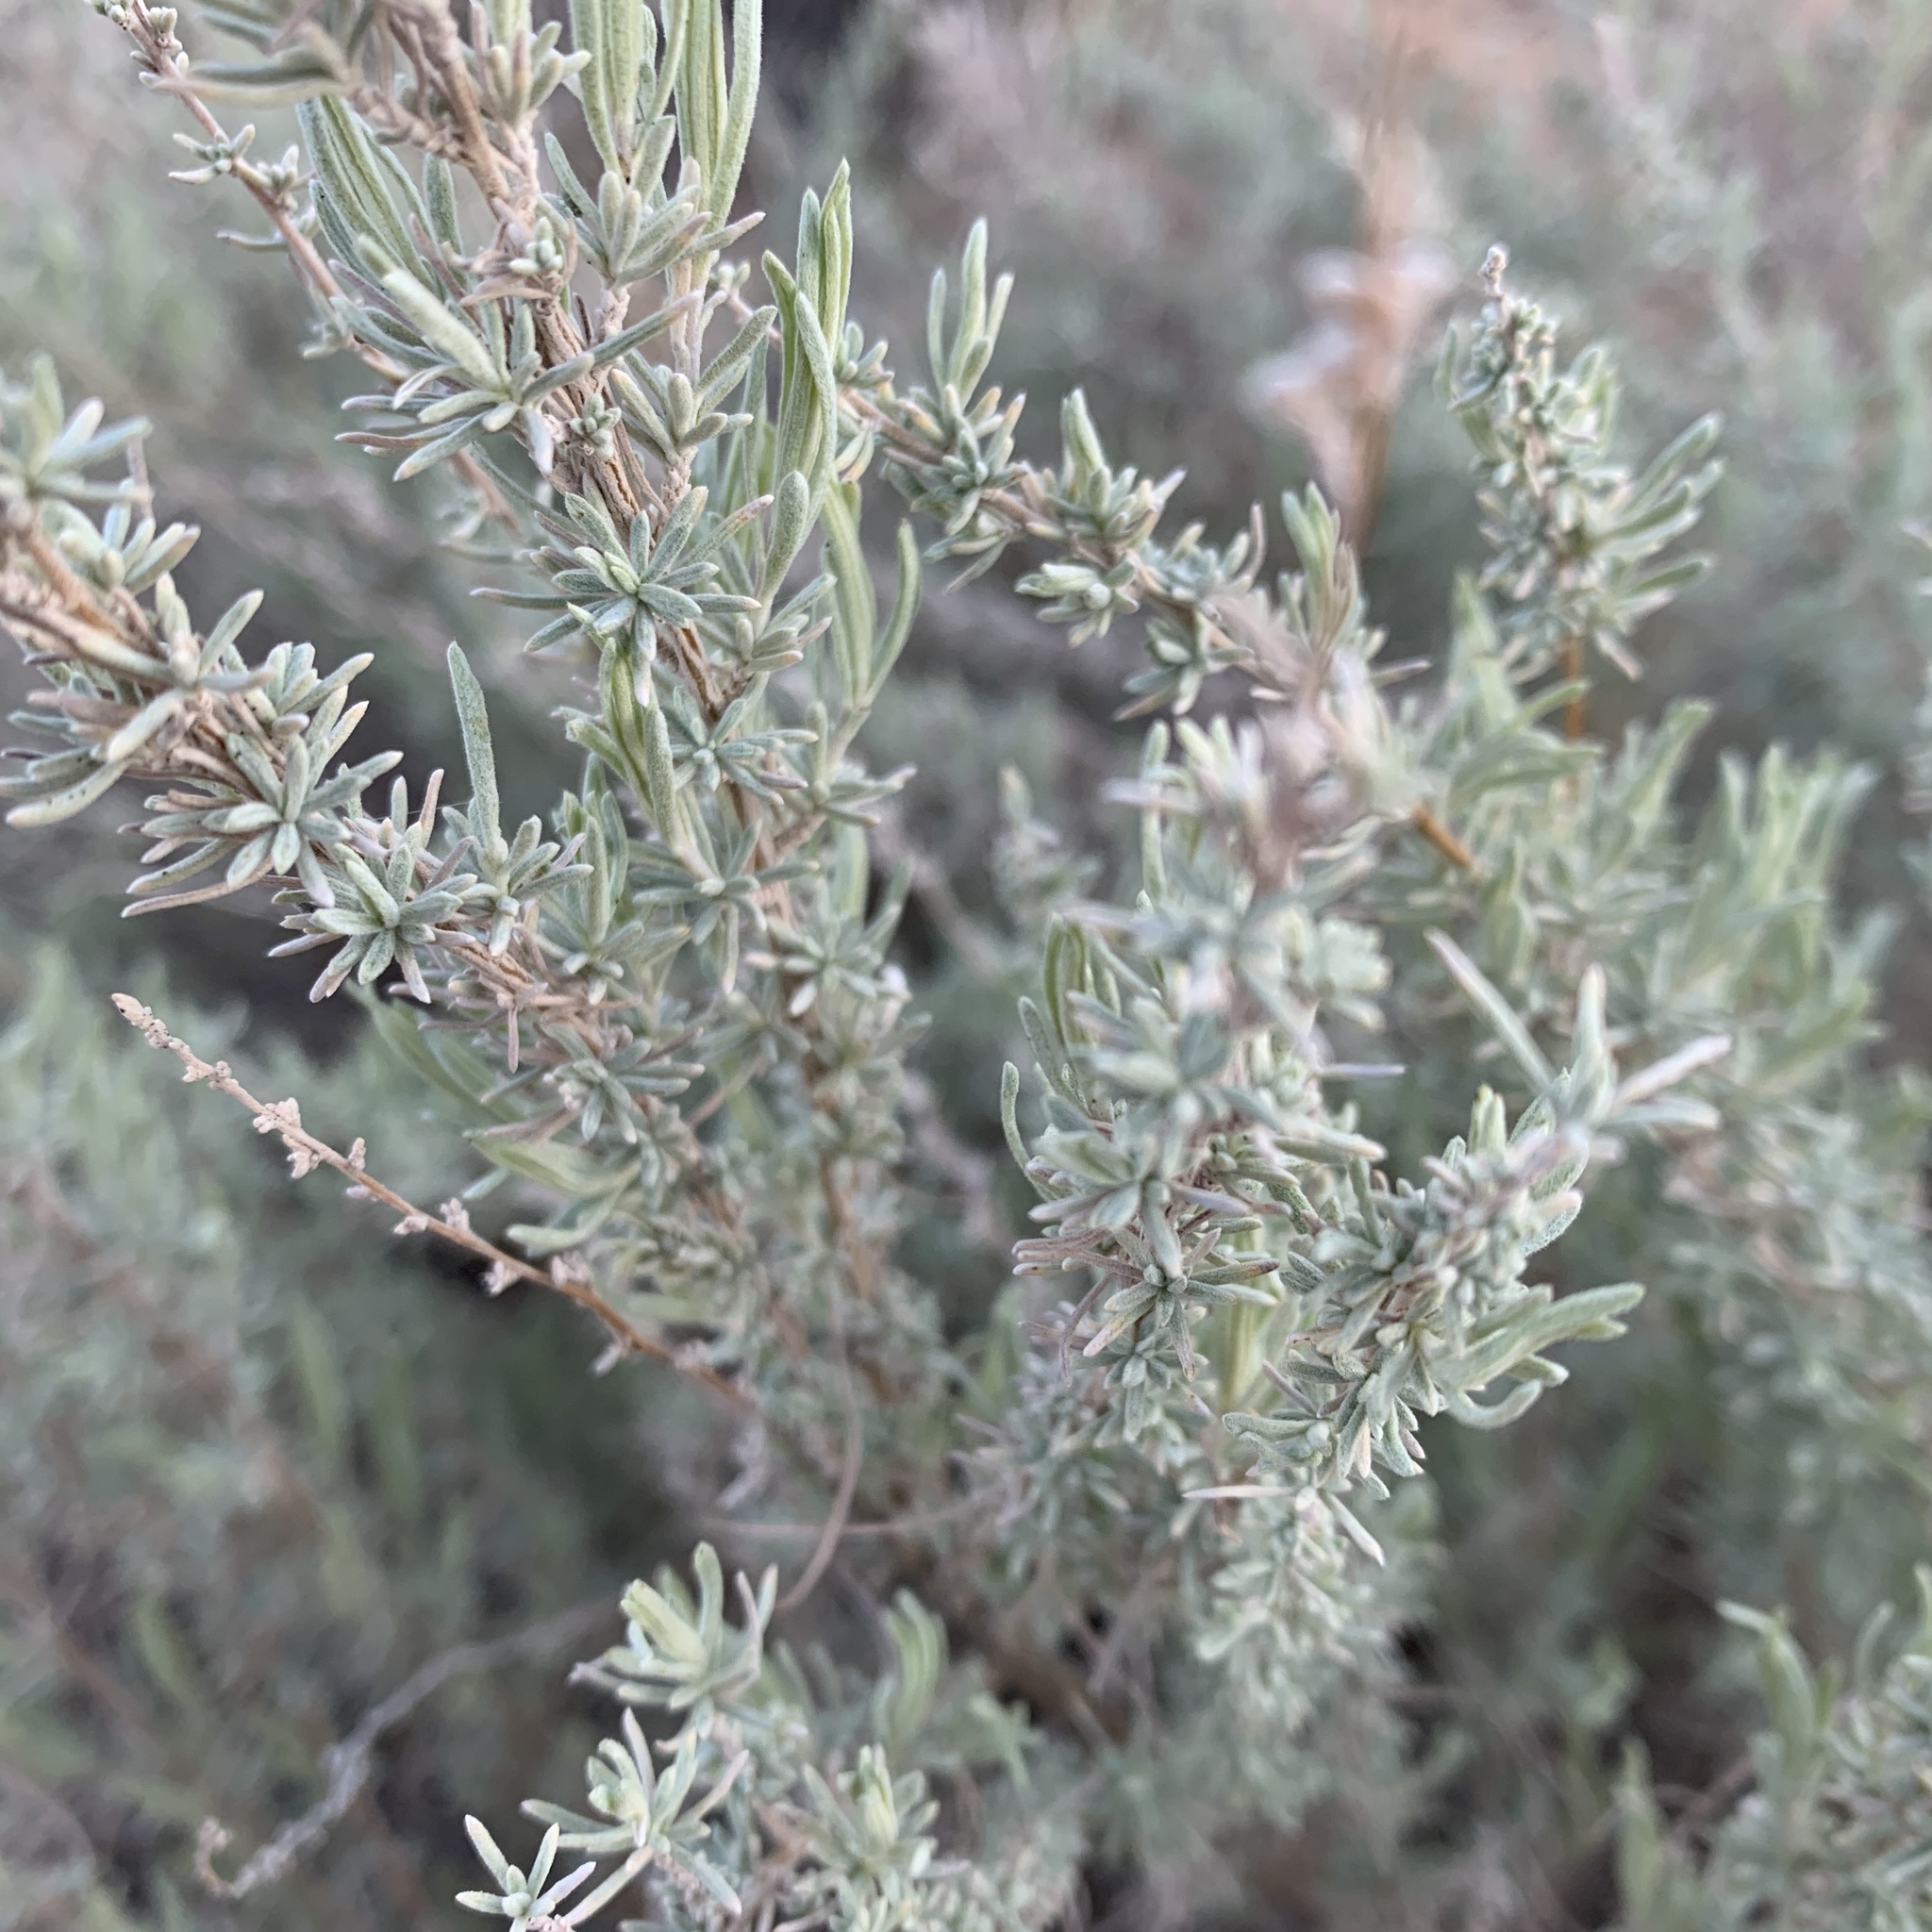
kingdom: Plantae
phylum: Tracheophyta
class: Magnoliopsida
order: Asterales
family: Asteraceae
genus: Artemisia
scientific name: Artemisia filifolia
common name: Sand-sage
